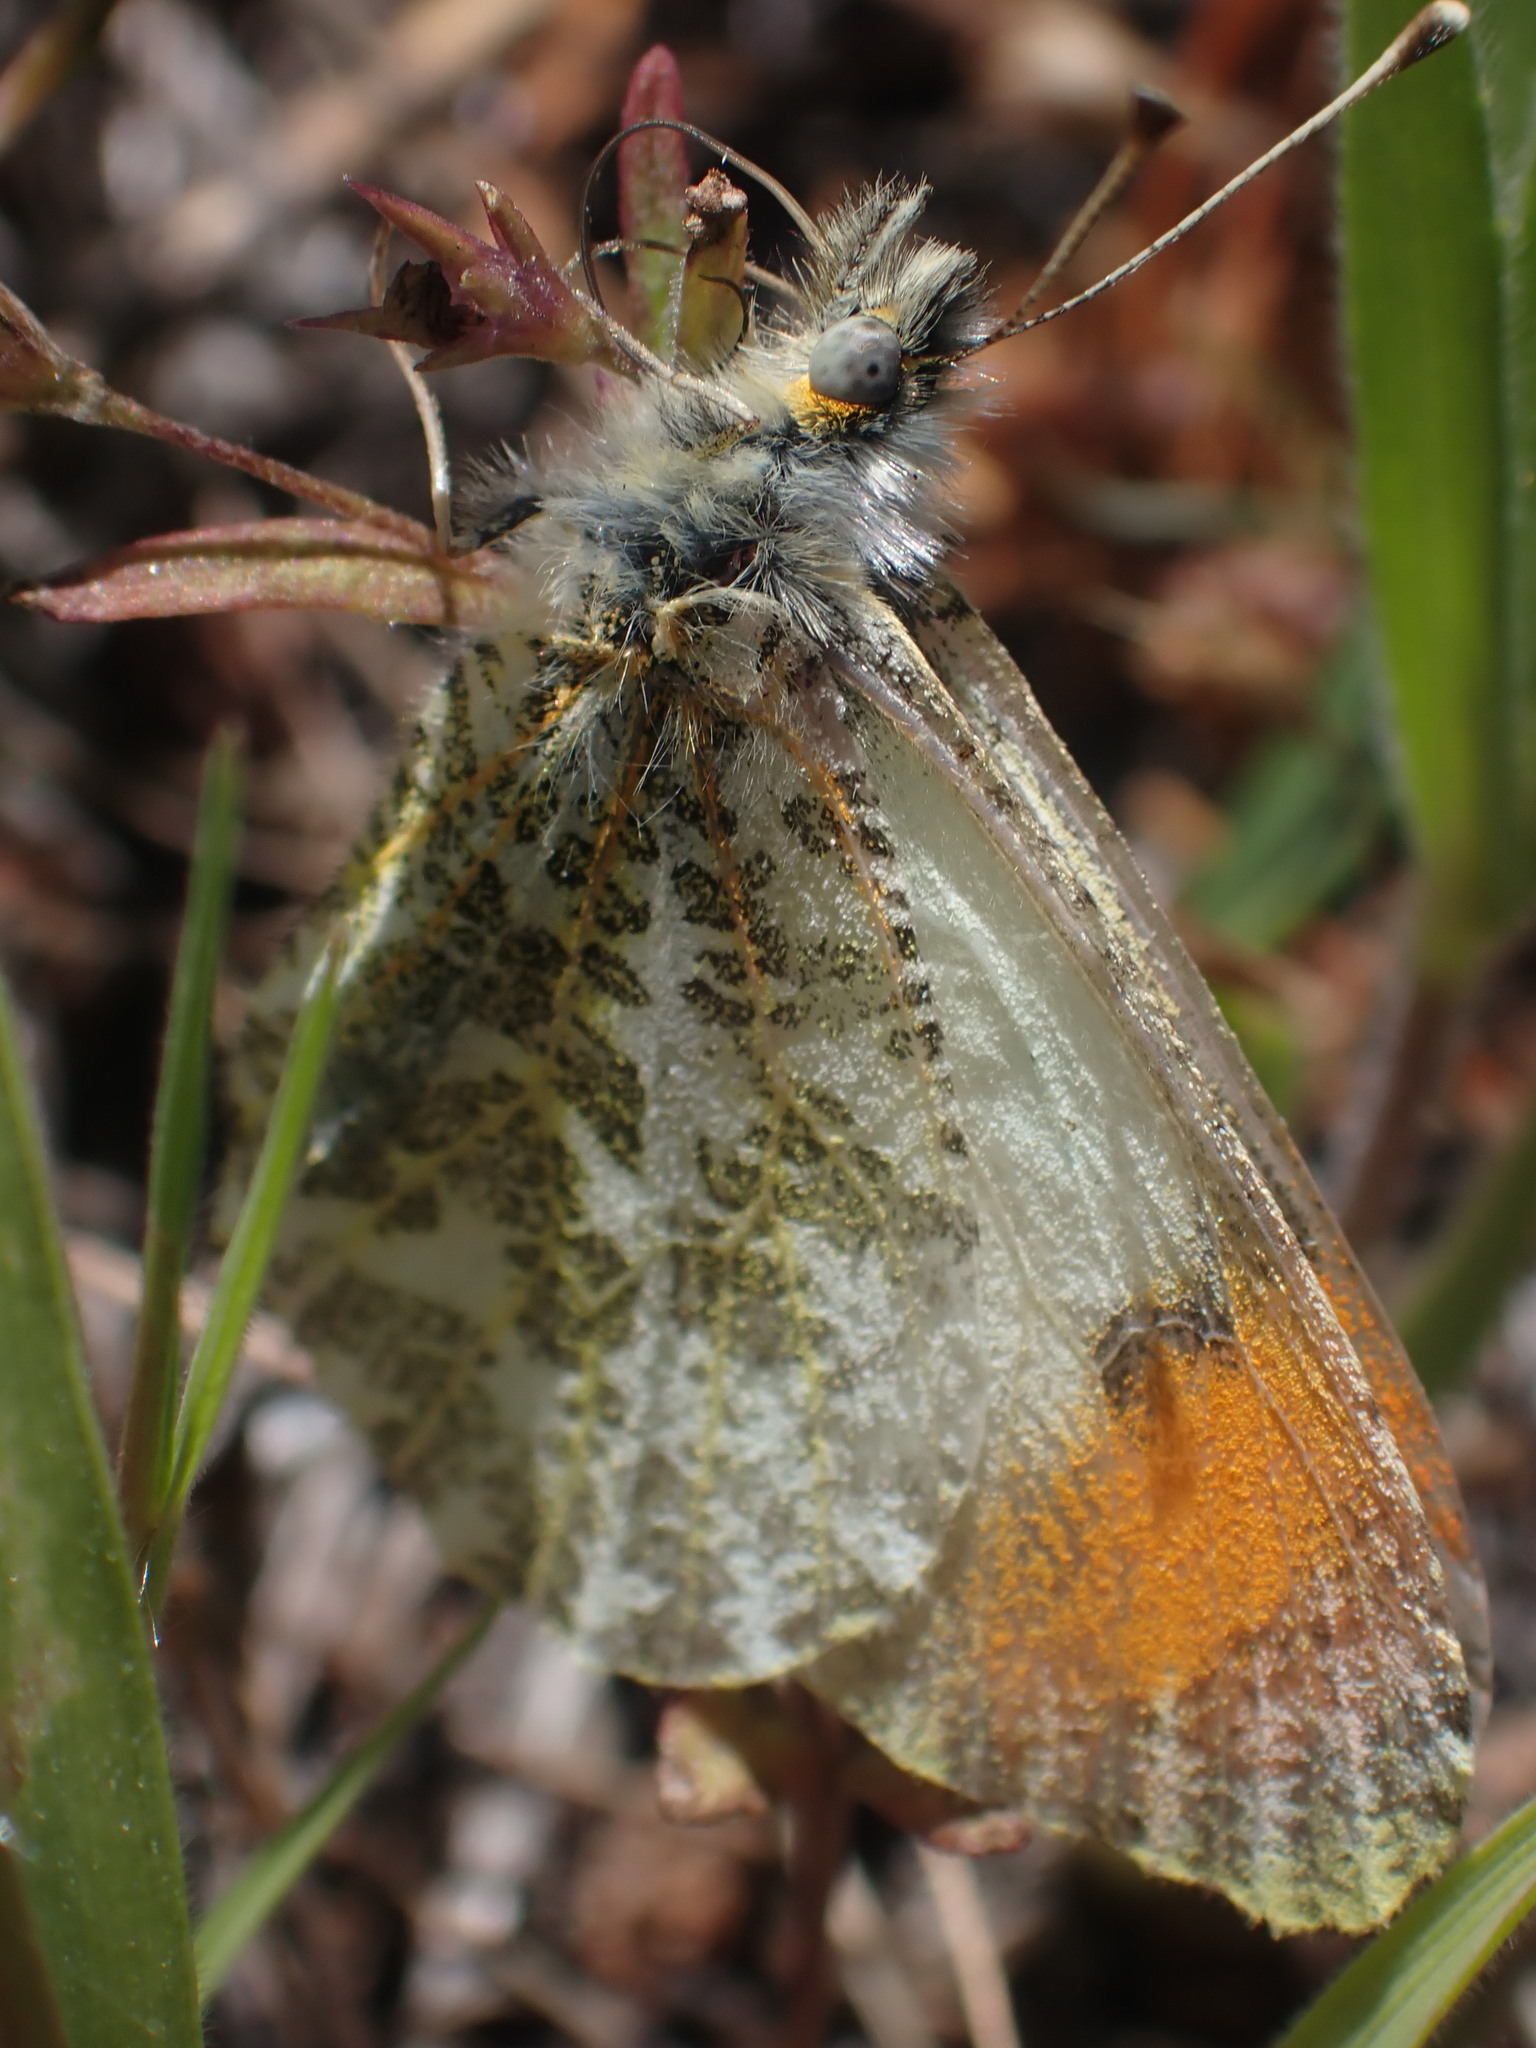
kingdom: Animalia
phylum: Arthropoda
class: Insecta
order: Lepidoptera
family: Pieridae
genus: Anthocharis
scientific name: Anthocharis julia
